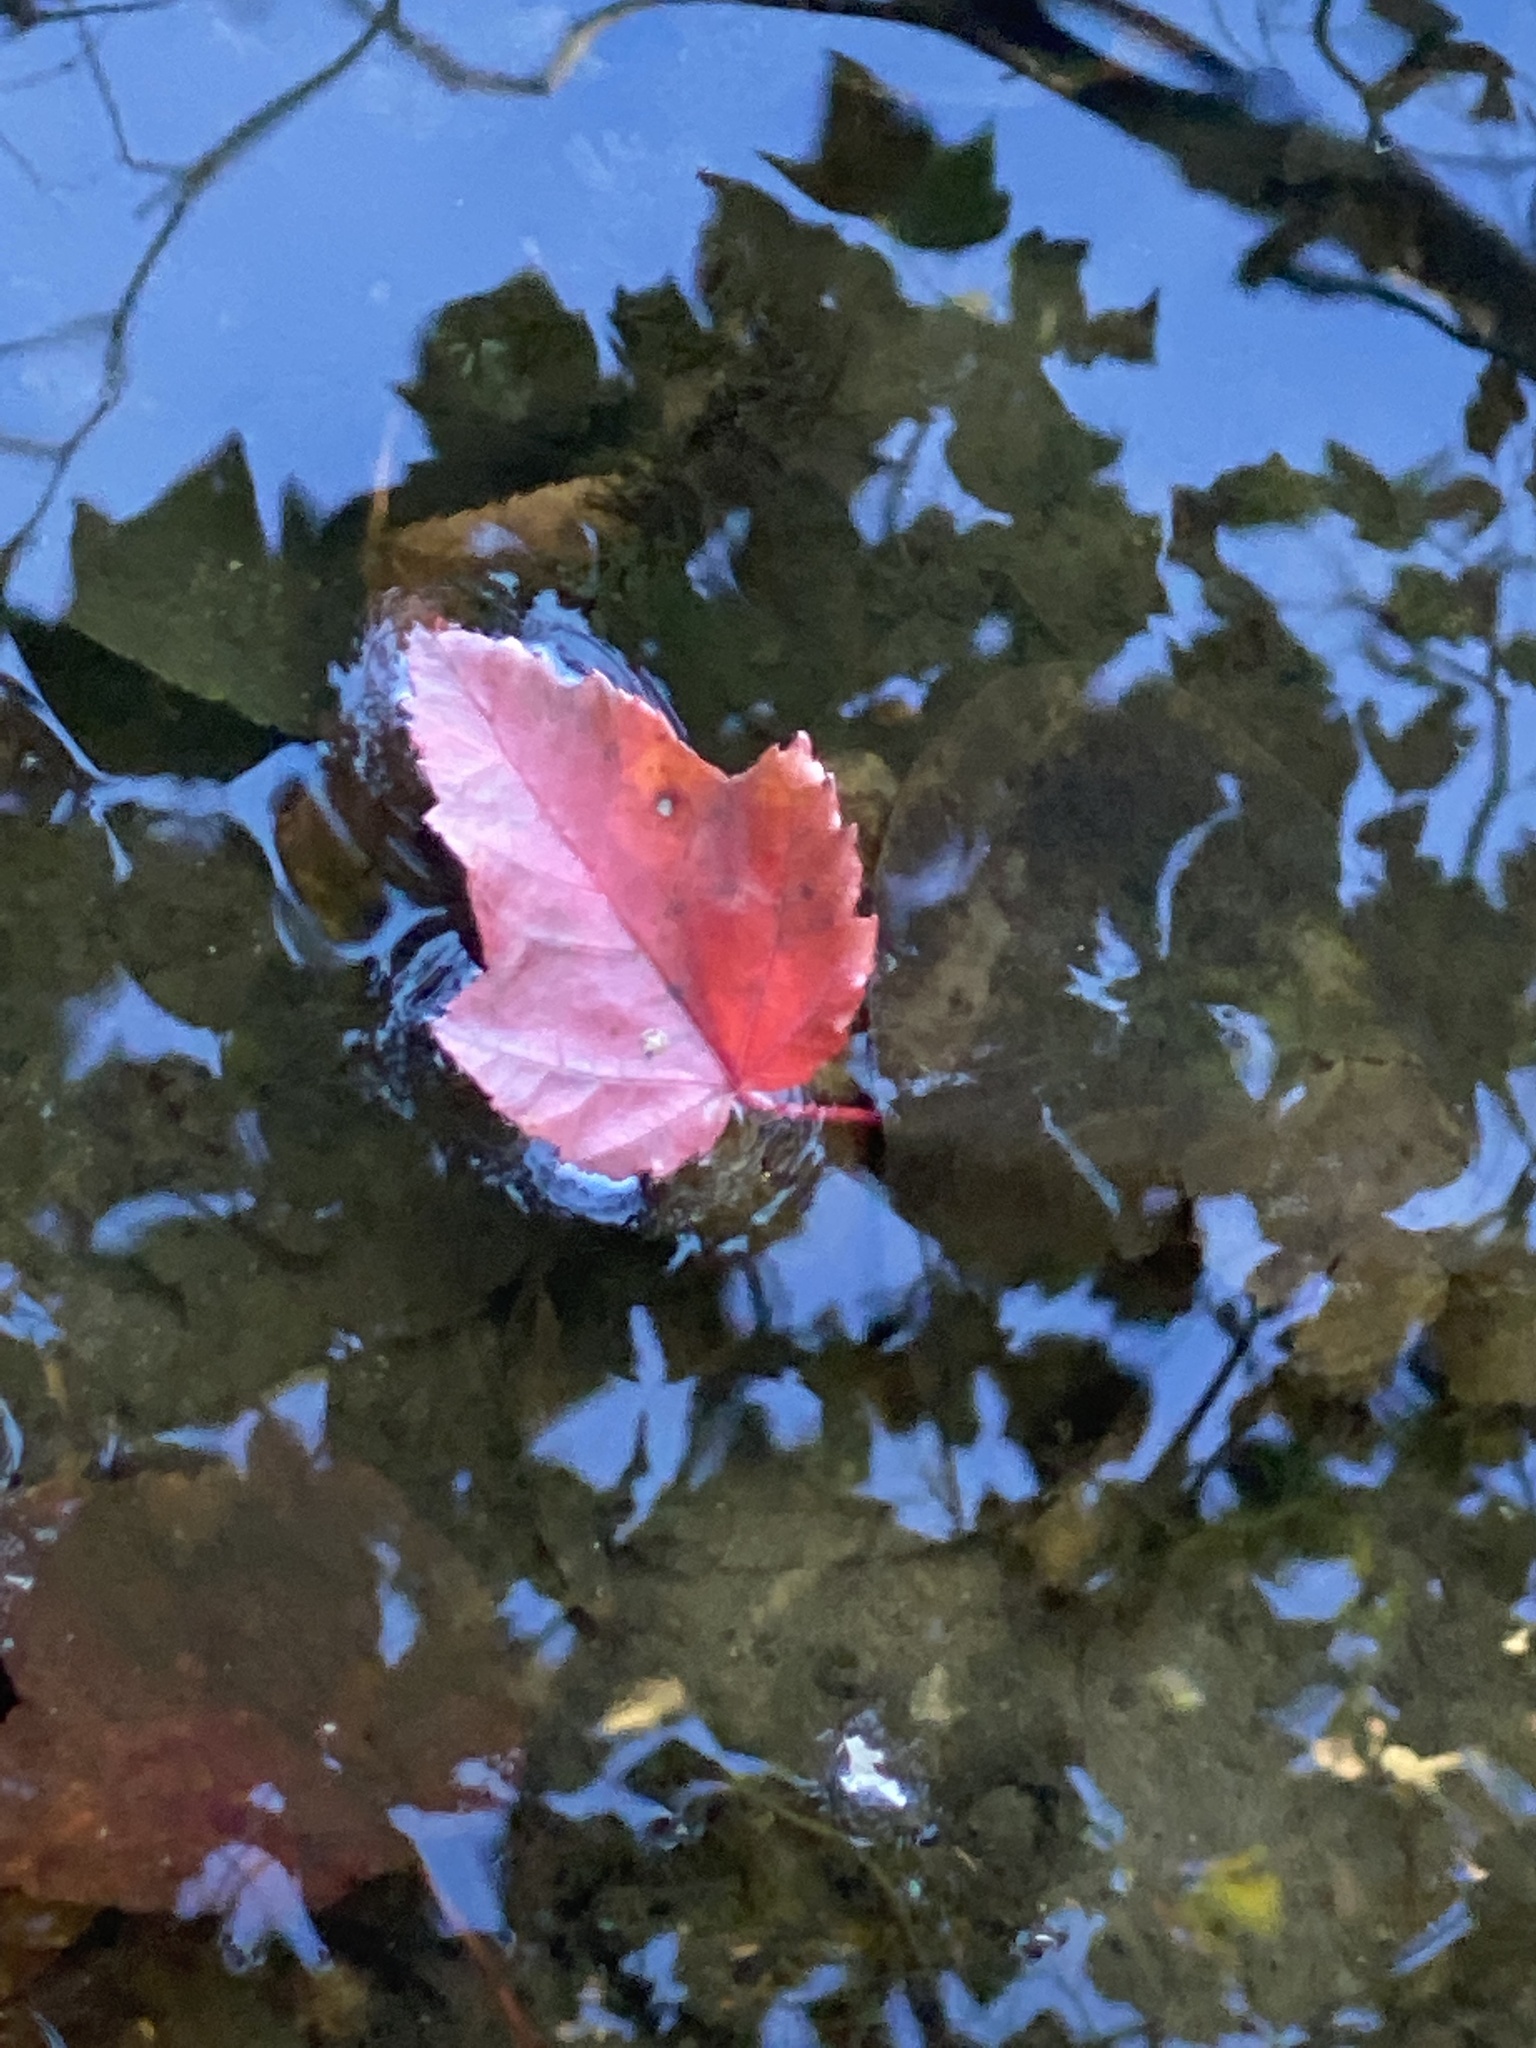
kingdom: Plantae
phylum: Tracheophyta
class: Magnoliopsida
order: Sapindales
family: Sapindaceae
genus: Acer
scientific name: Acer rubrum
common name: Red maple
